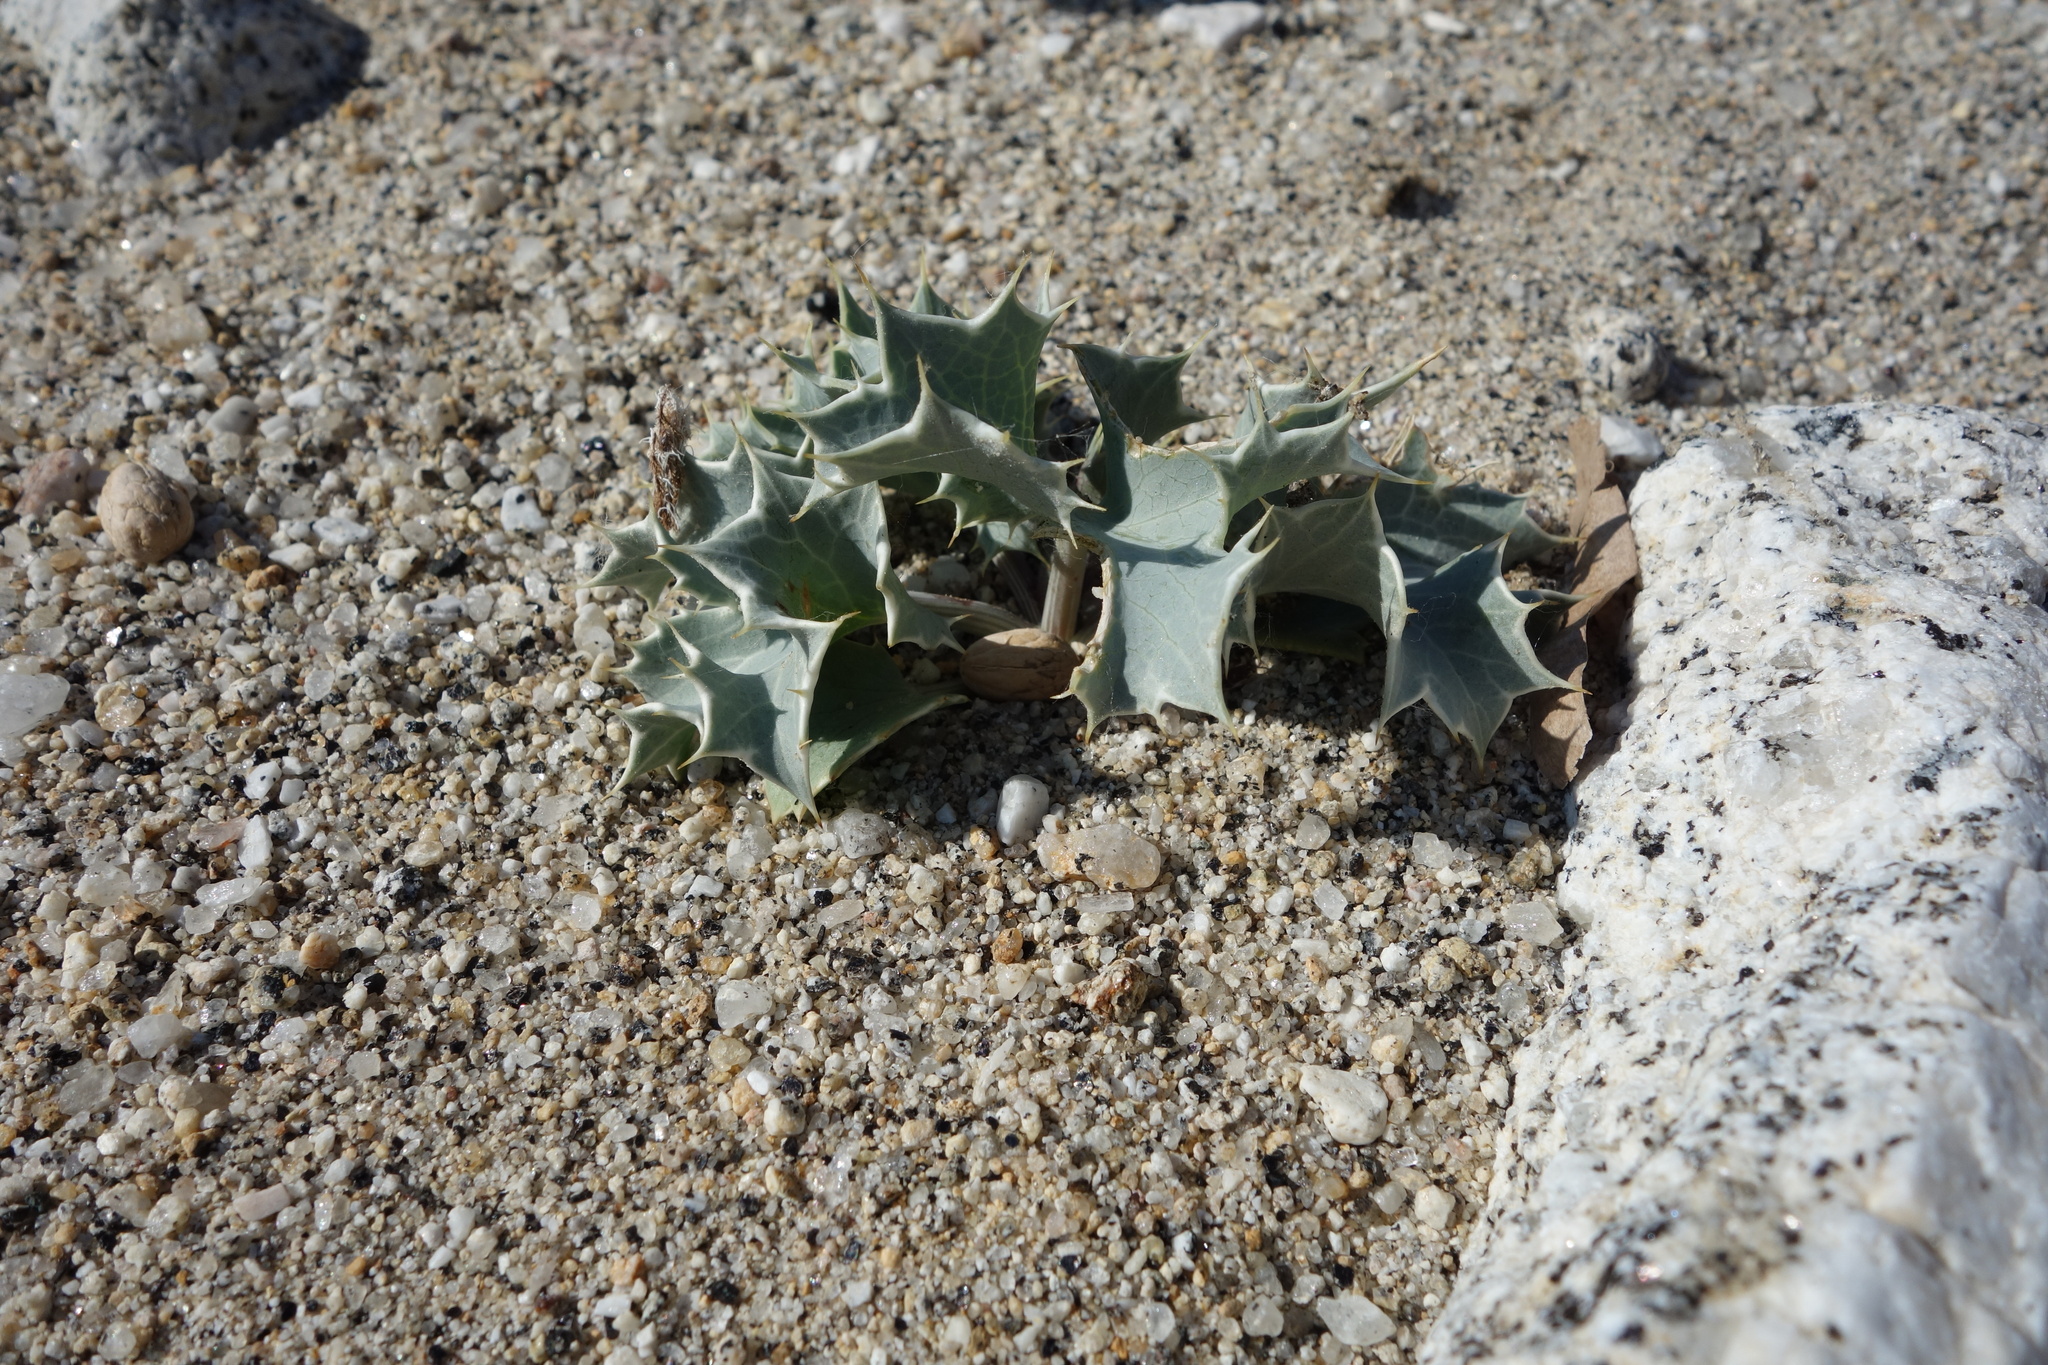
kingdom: Plantae
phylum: Tracheophyta
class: Magnoliopsida
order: Apiales
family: Apiaceae
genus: Eryngium
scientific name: Eryngium maritimum
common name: Sea-holly
